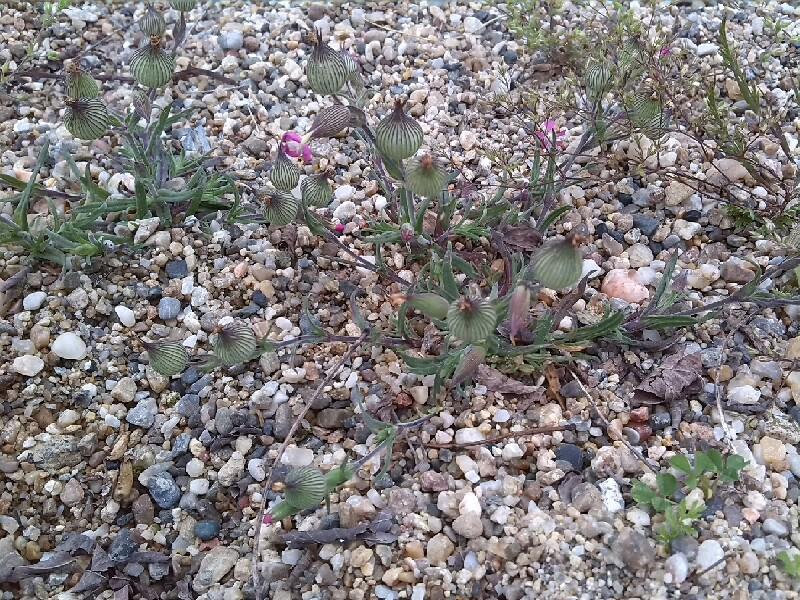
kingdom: Plantae
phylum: Tracheophyta
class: Magnoliopsida
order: Caryophyllales
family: Caryophyllaceae
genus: Silene
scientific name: Silene conica
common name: Sand catchfly
